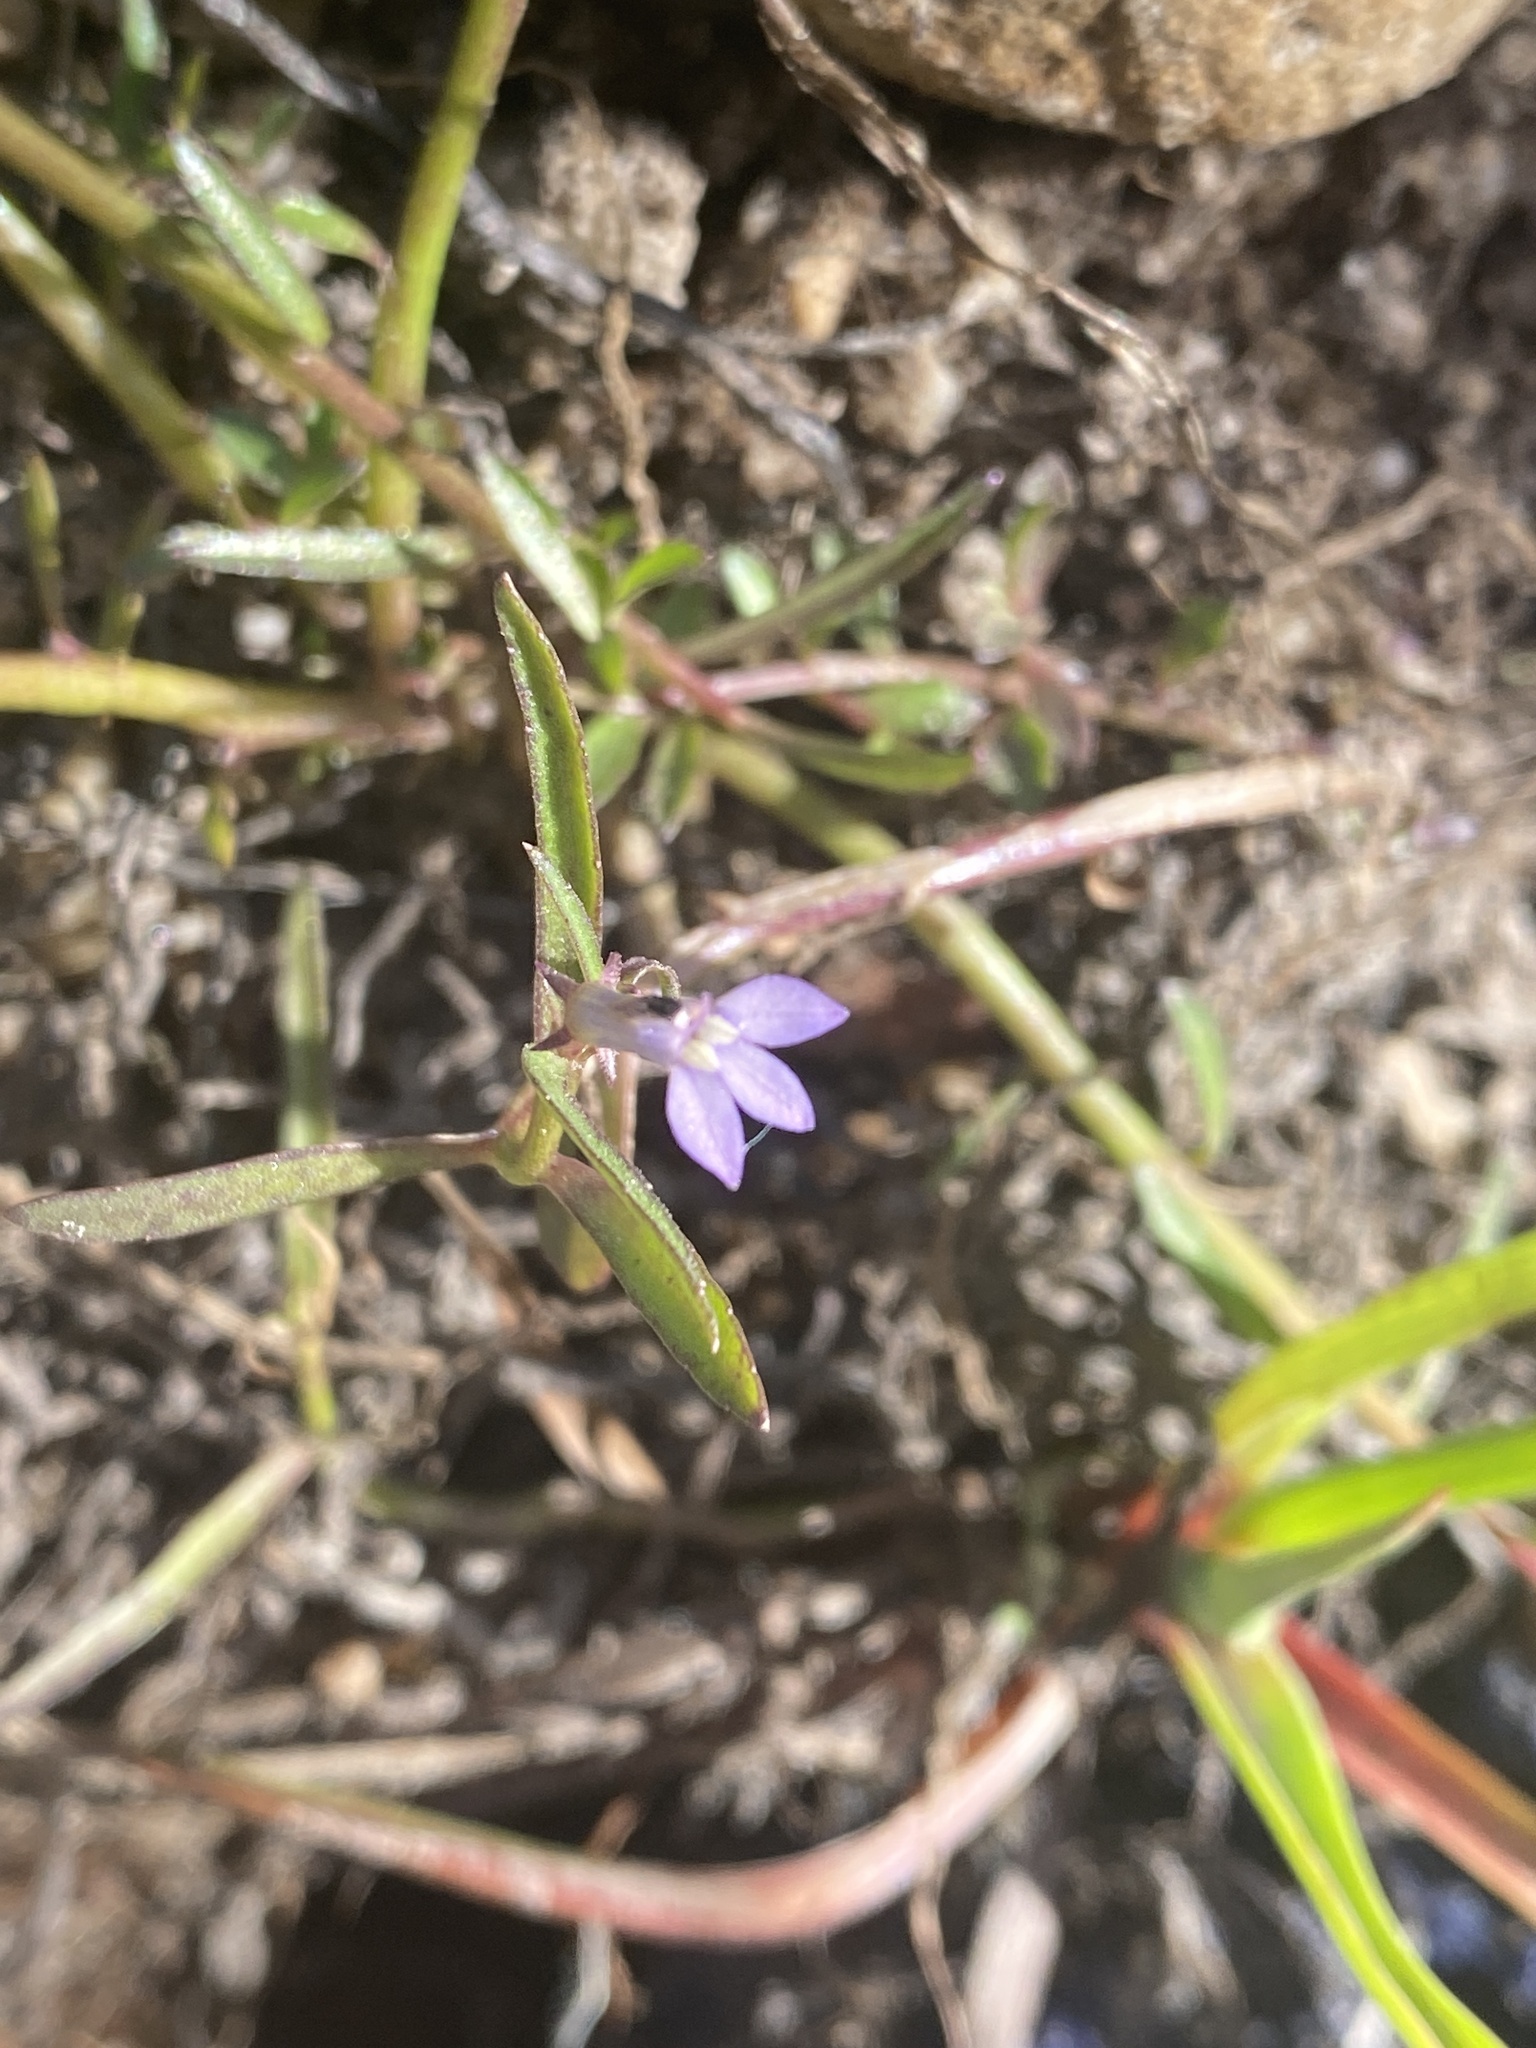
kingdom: Plantae
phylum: Tracheophyta
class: Magnoliopsida
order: Asterales
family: Campanulaceae
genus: Grammatotheca
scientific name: Grammatotheca bergiana
